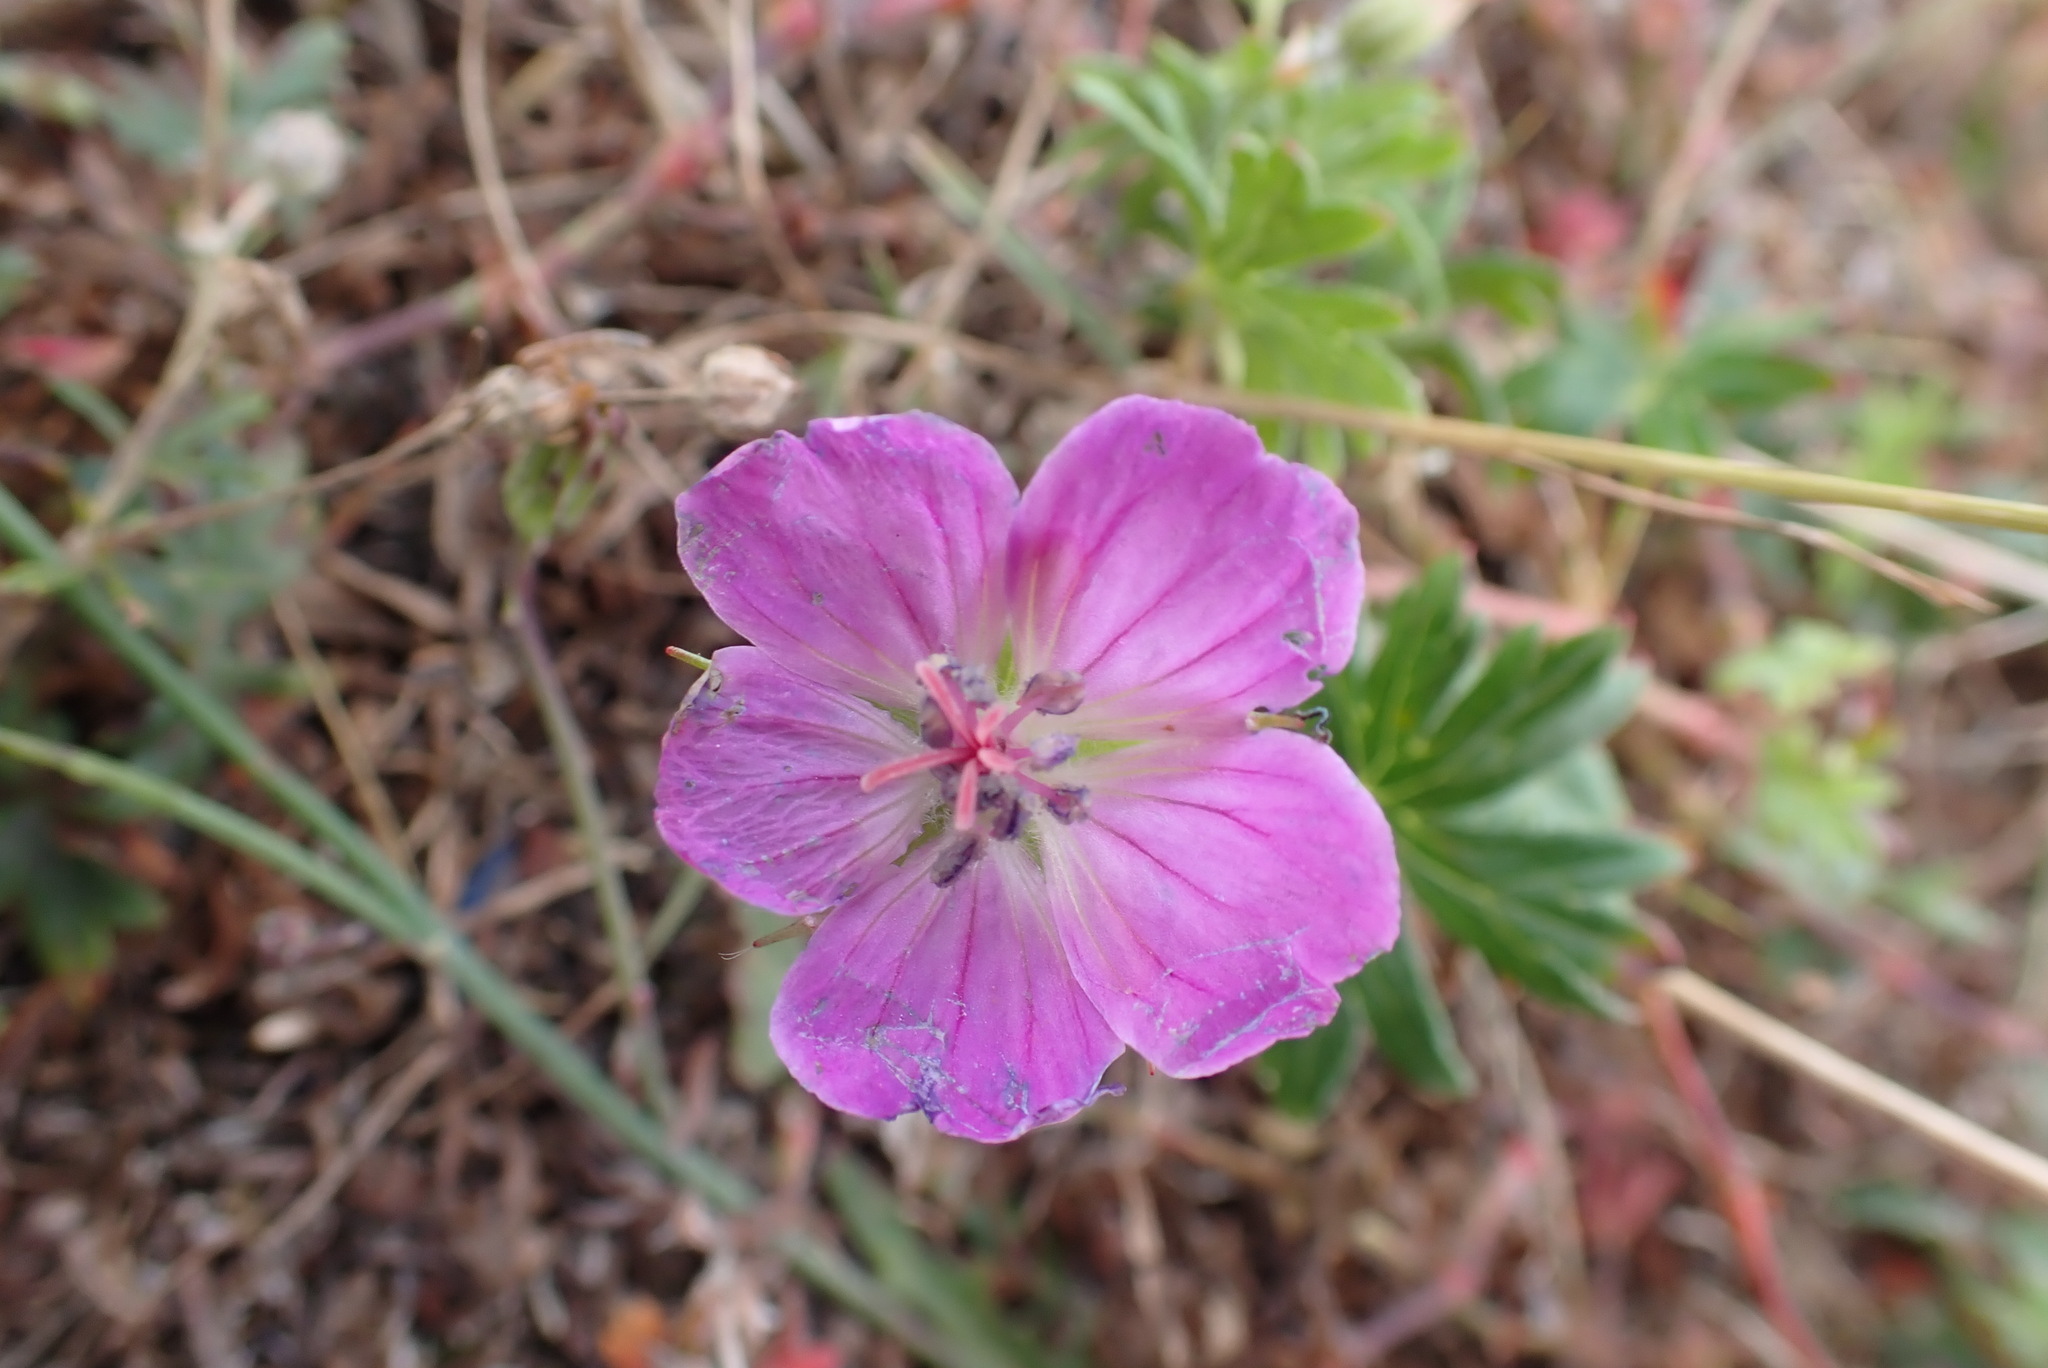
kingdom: Plantae
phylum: Tracheophyta
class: Magnoliopsida
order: Geraniales
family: Geraniaceae
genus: Geranium
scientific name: Geranium sanguineum
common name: Bloody crane's-bill
